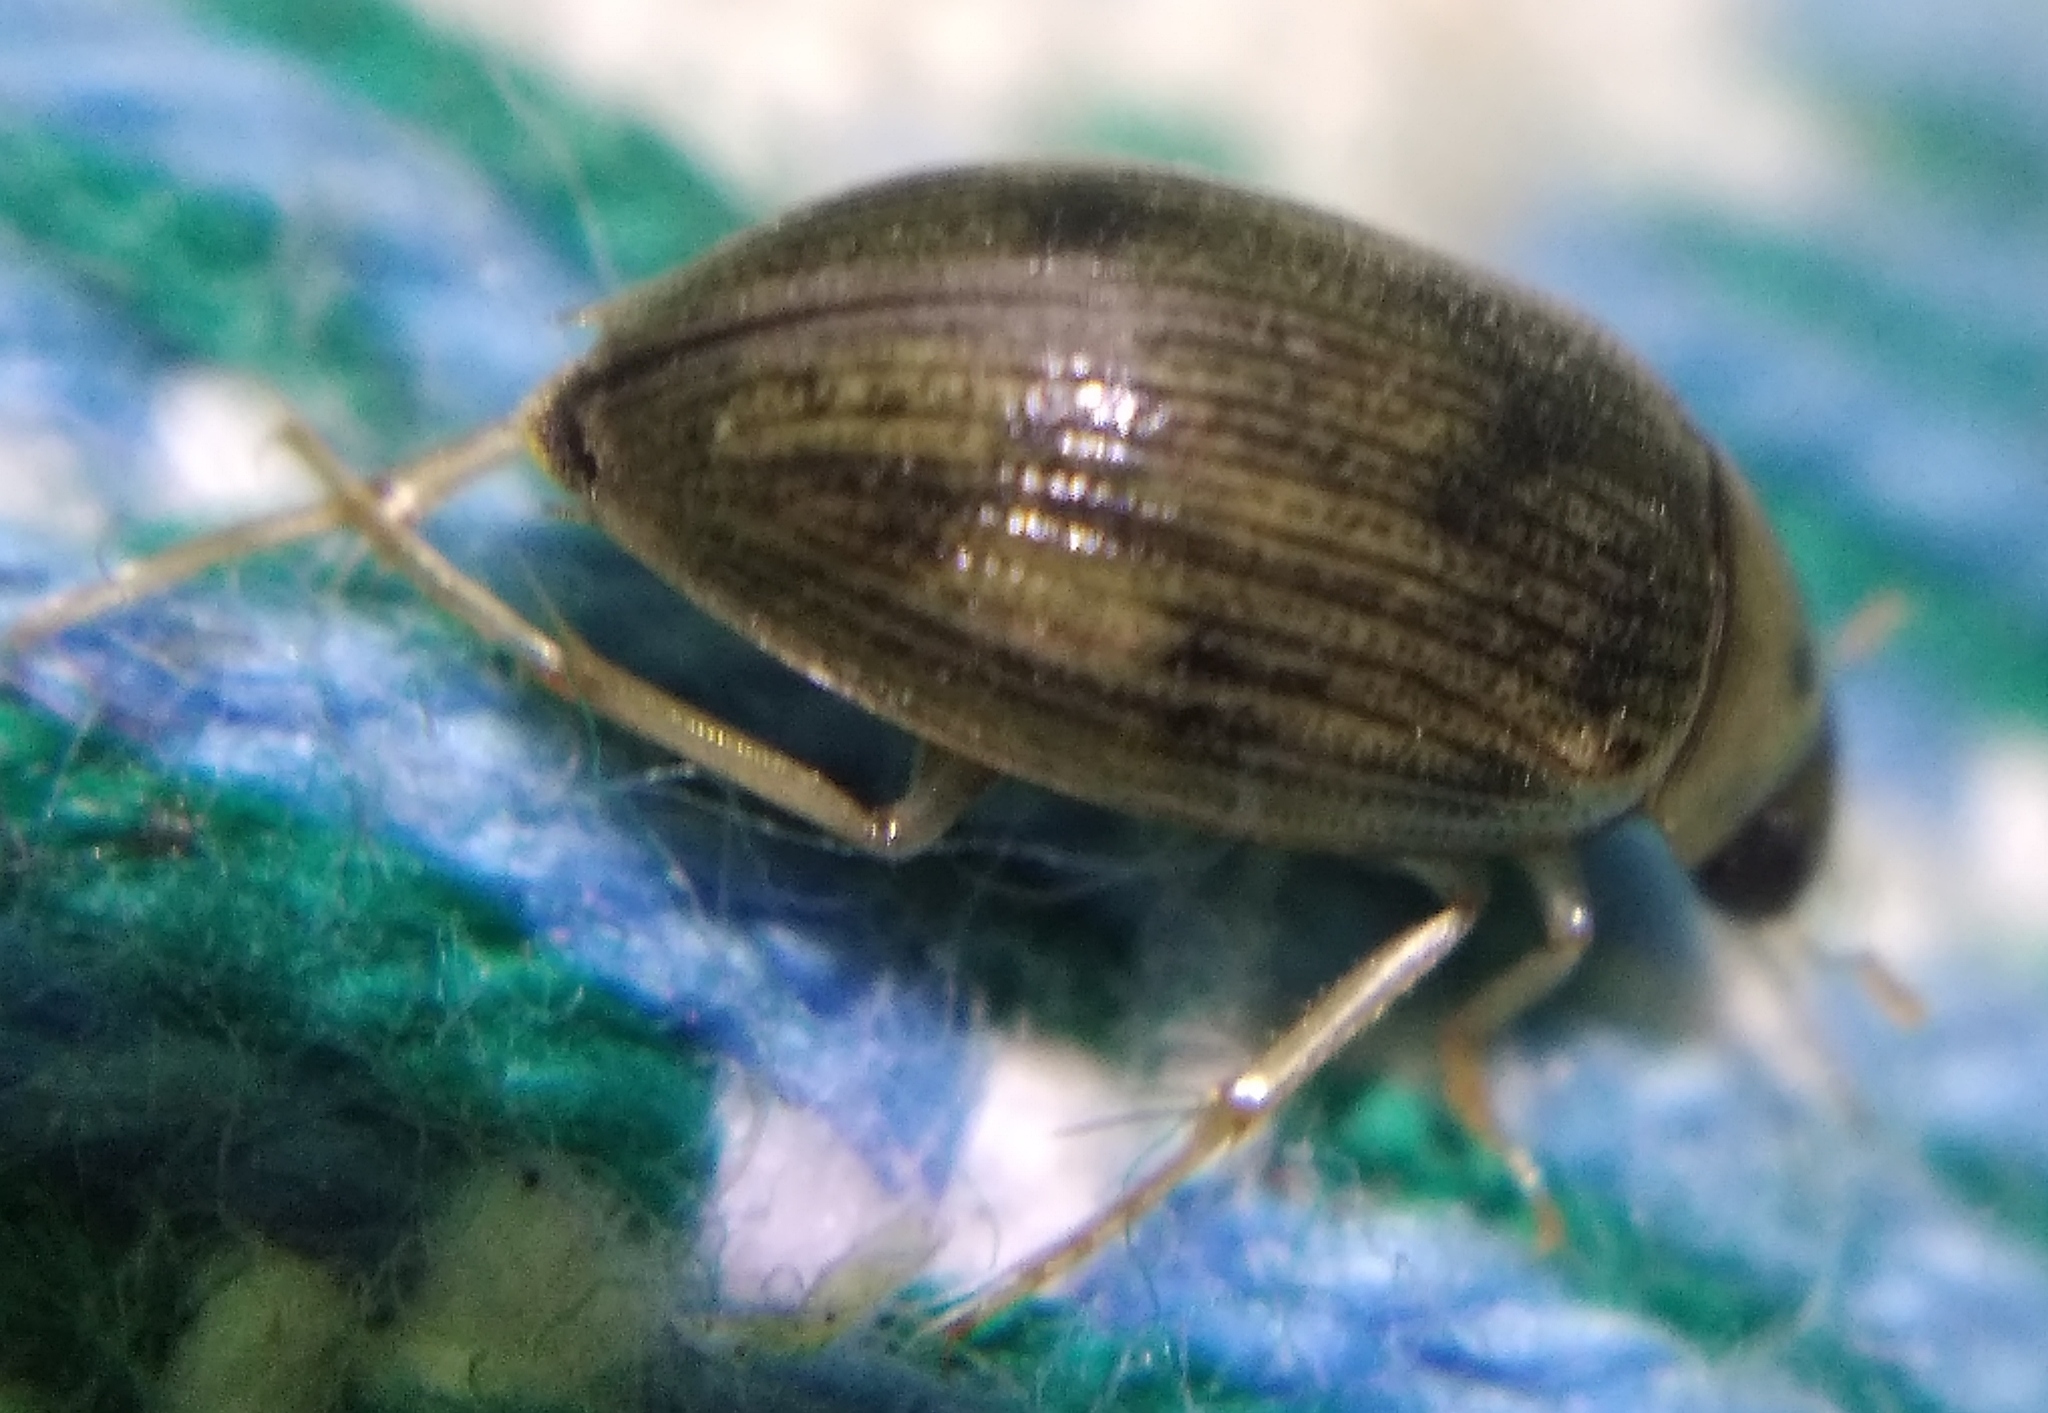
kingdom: Animalia
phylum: Arthropoda
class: Insecta
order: Coleoptera
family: Hydrophilidae
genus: Berosus
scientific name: Berosus spinosus
